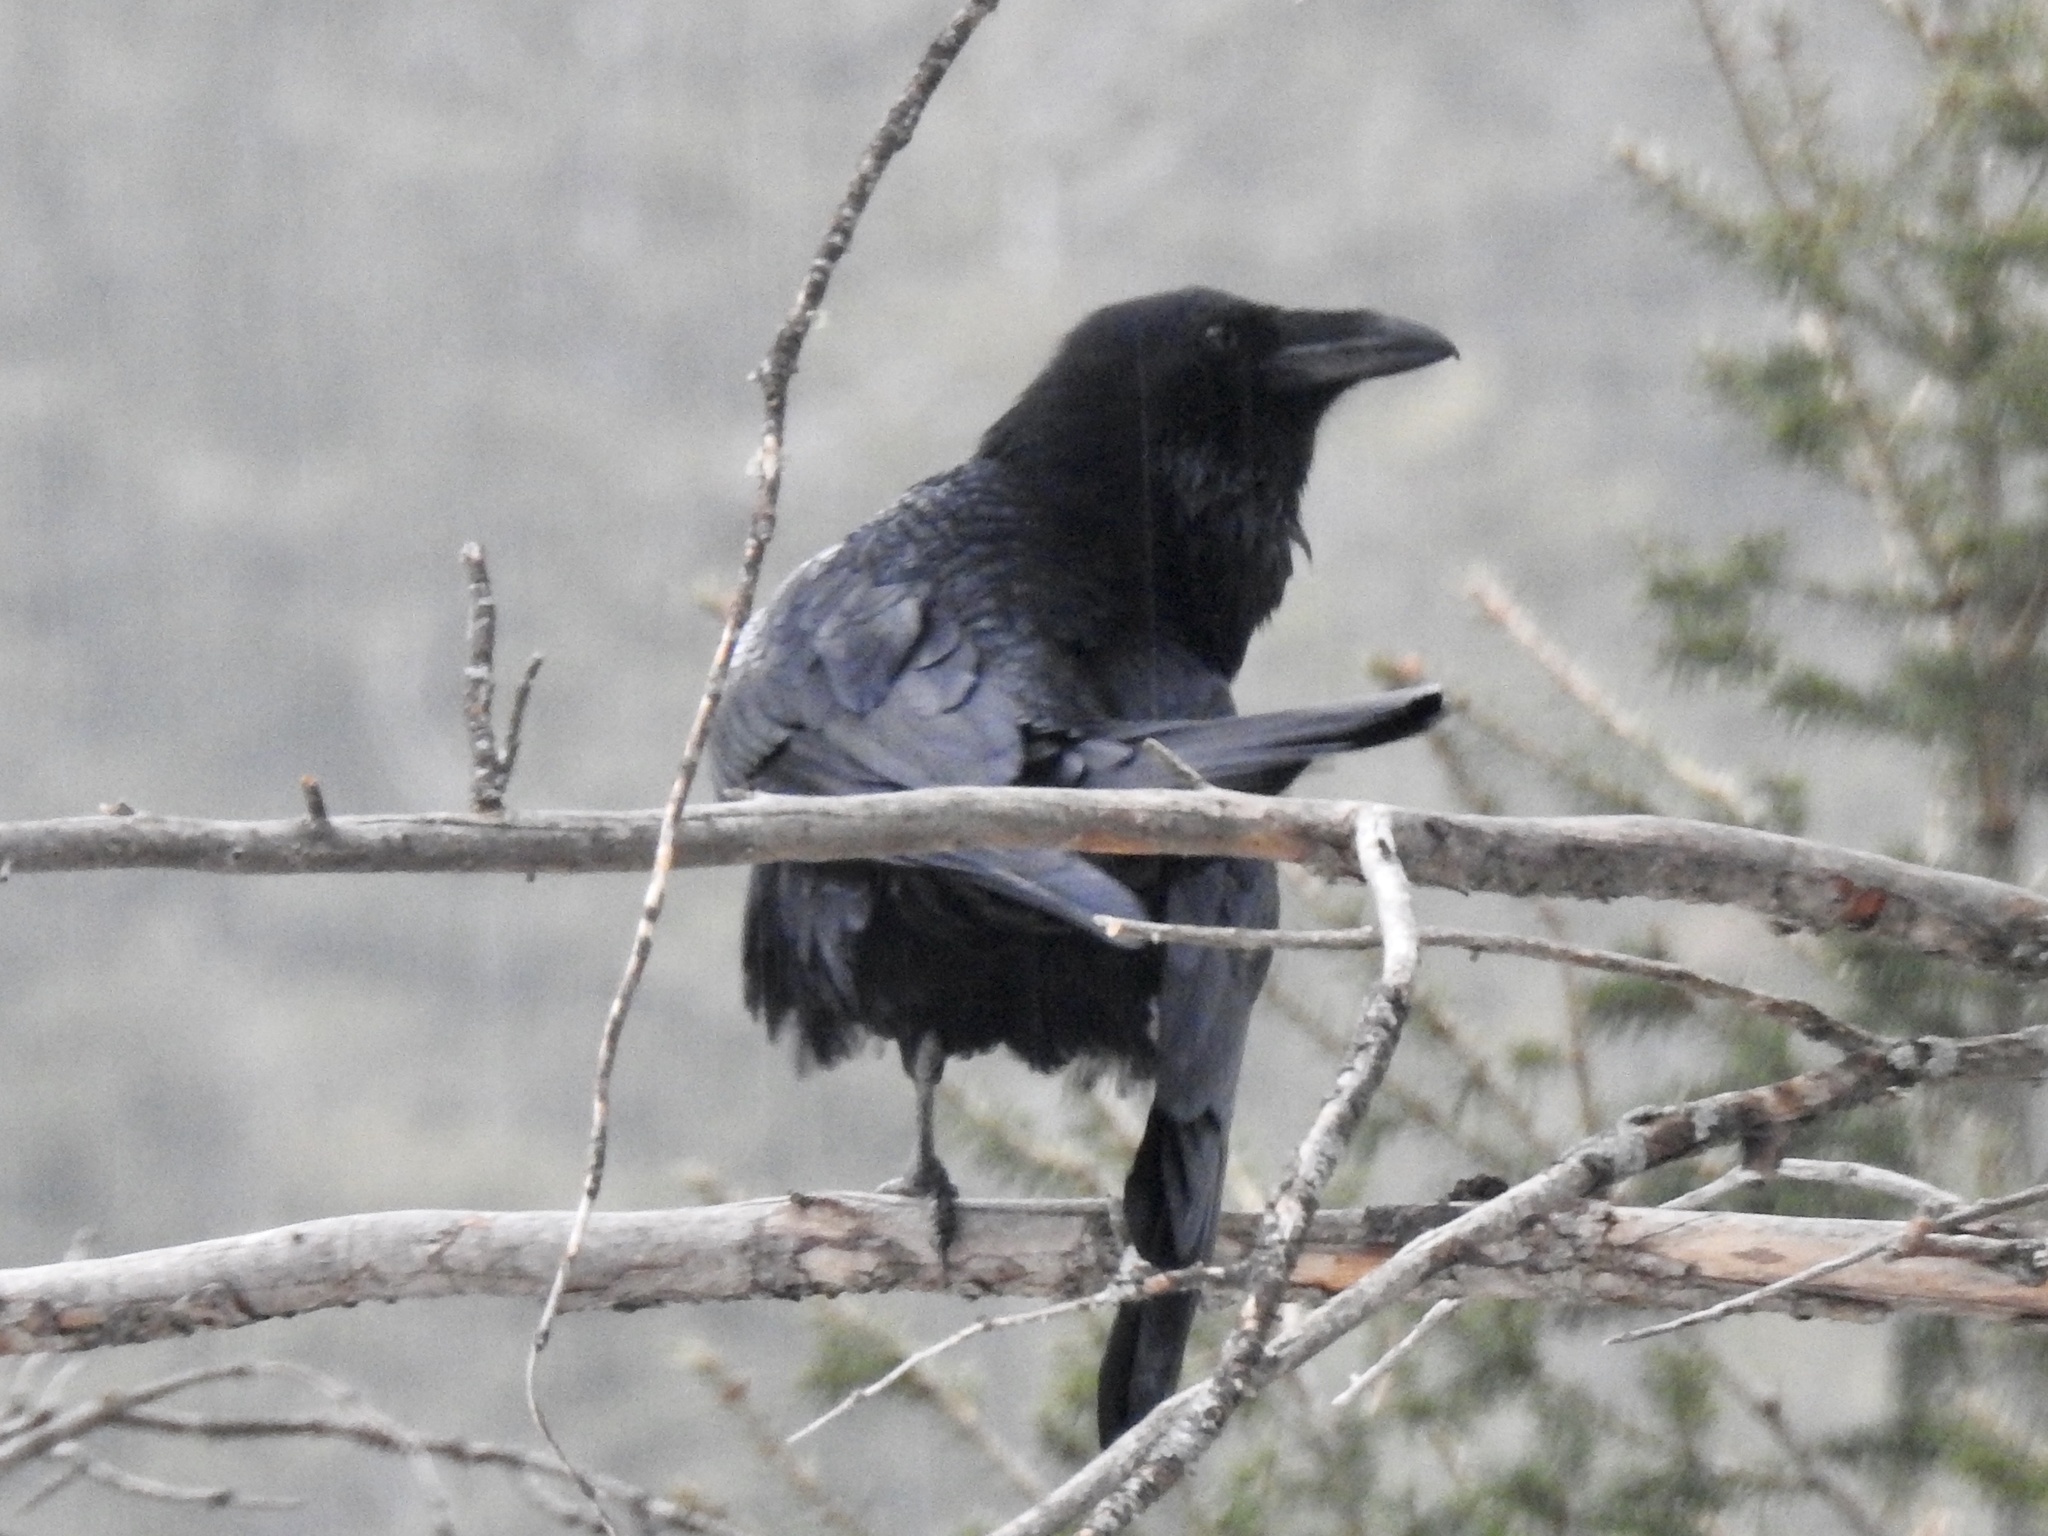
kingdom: Animalia
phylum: Chordata
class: Aves
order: Passeriformes
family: Corvidae
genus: Corvus
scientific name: Corvus corax
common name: Common raven
